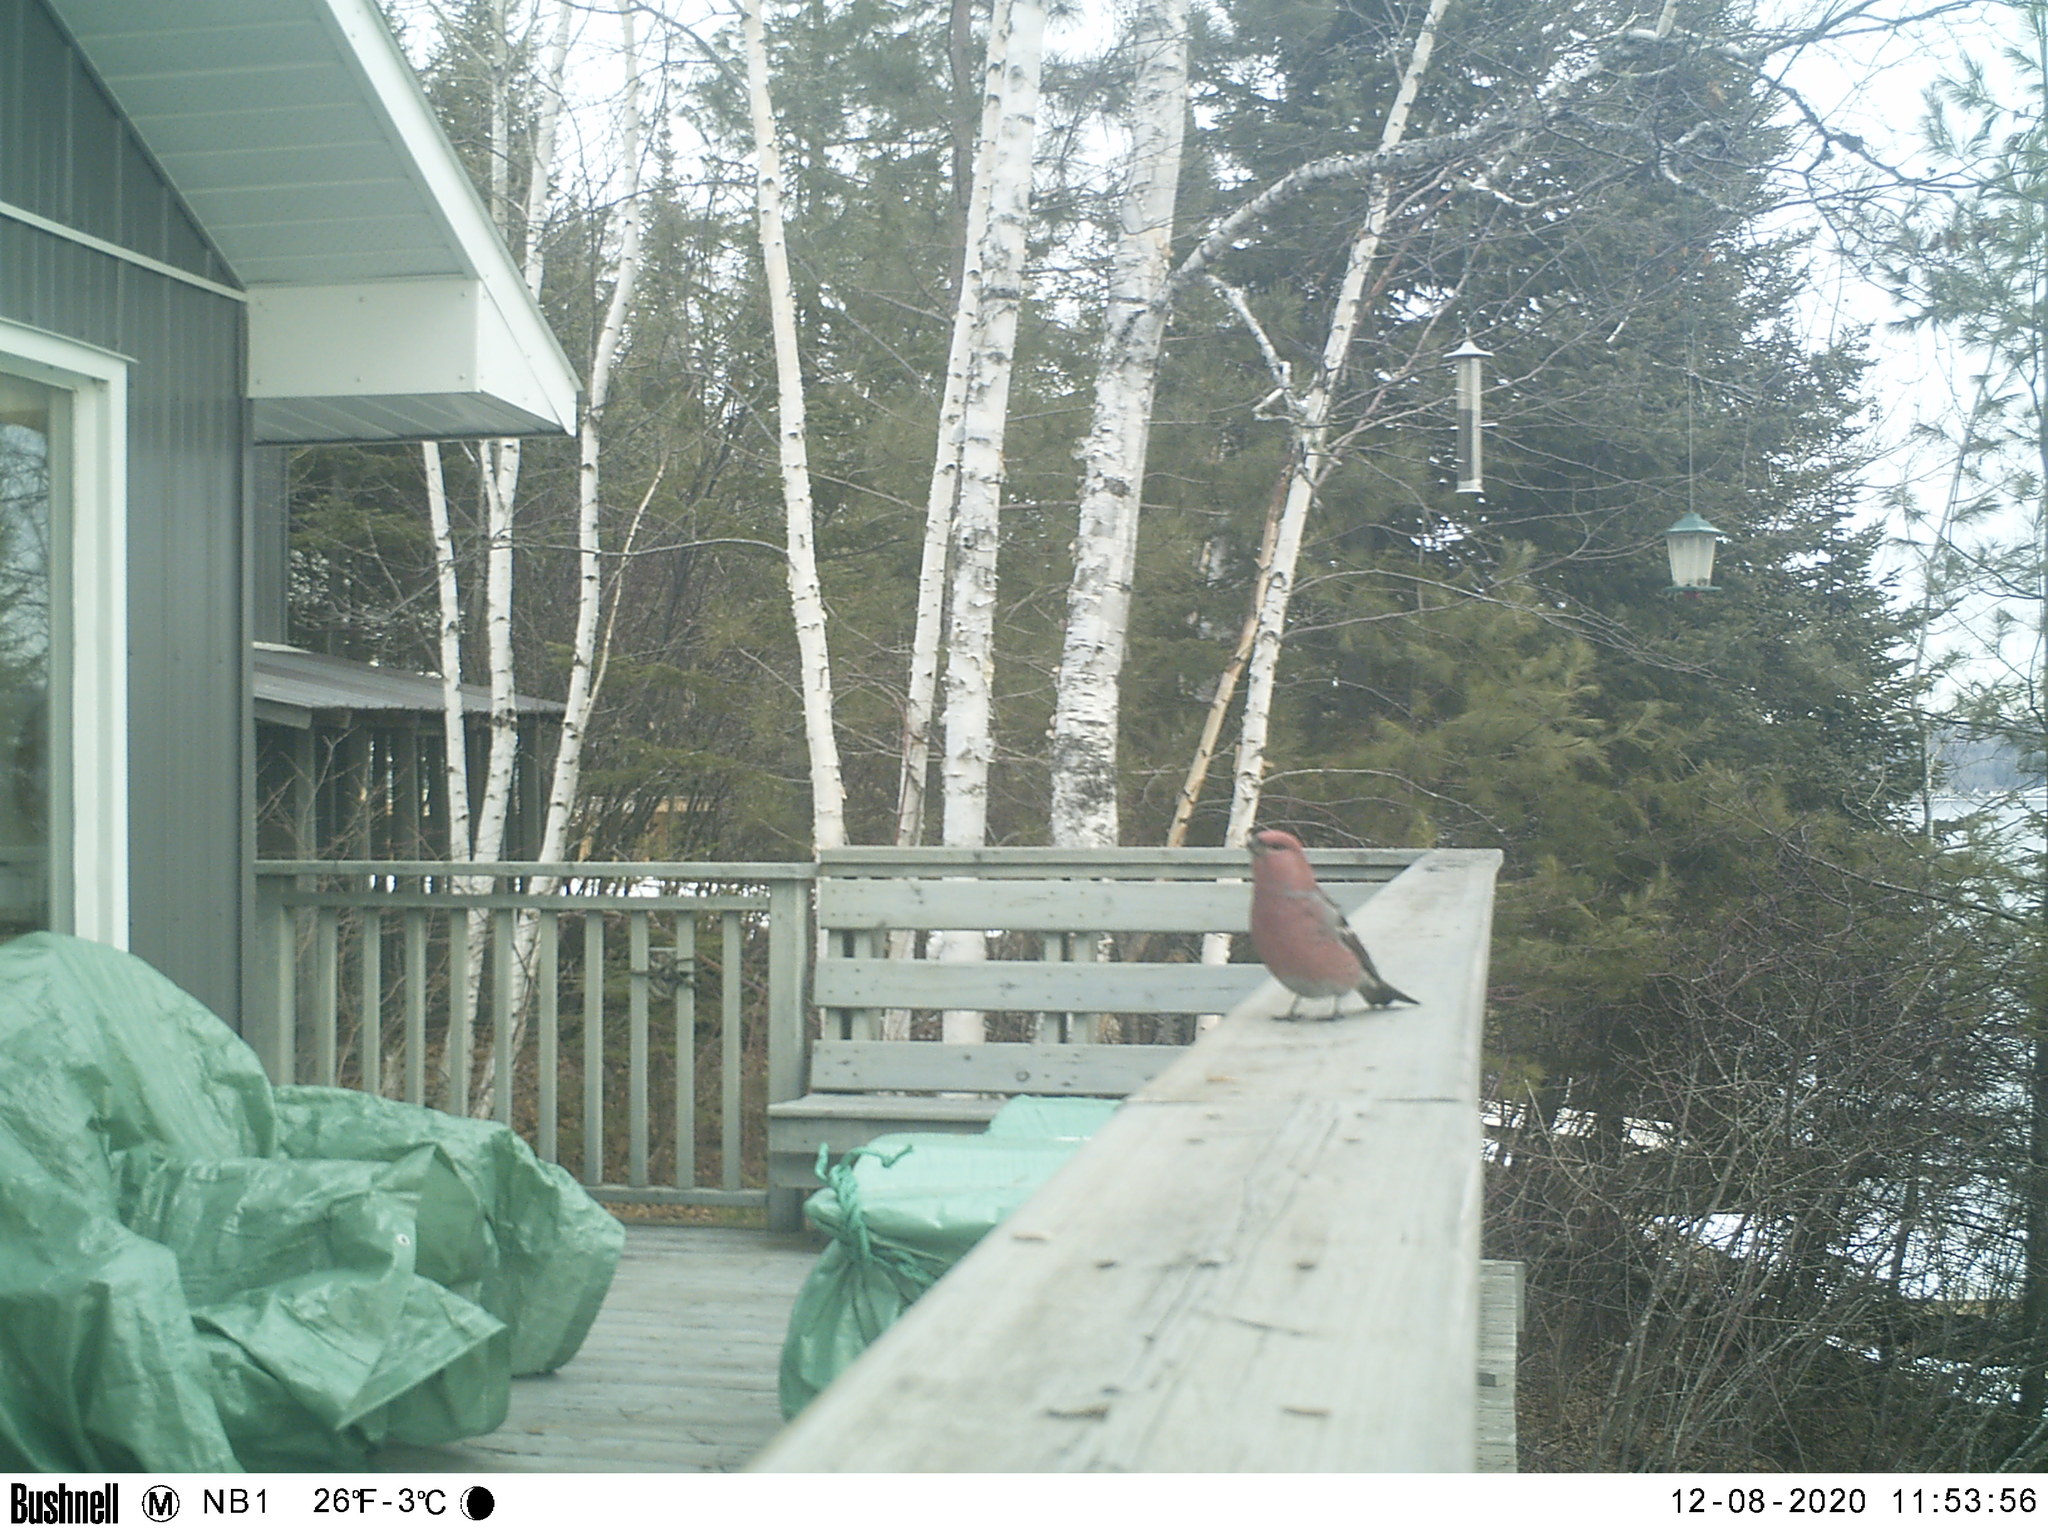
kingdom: Animalia
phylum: Chordata
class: Aves
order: Passeriformes
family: Fringillidae
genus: Pinicola
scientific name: Pinicola enucleator
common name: Pine grosbeak
